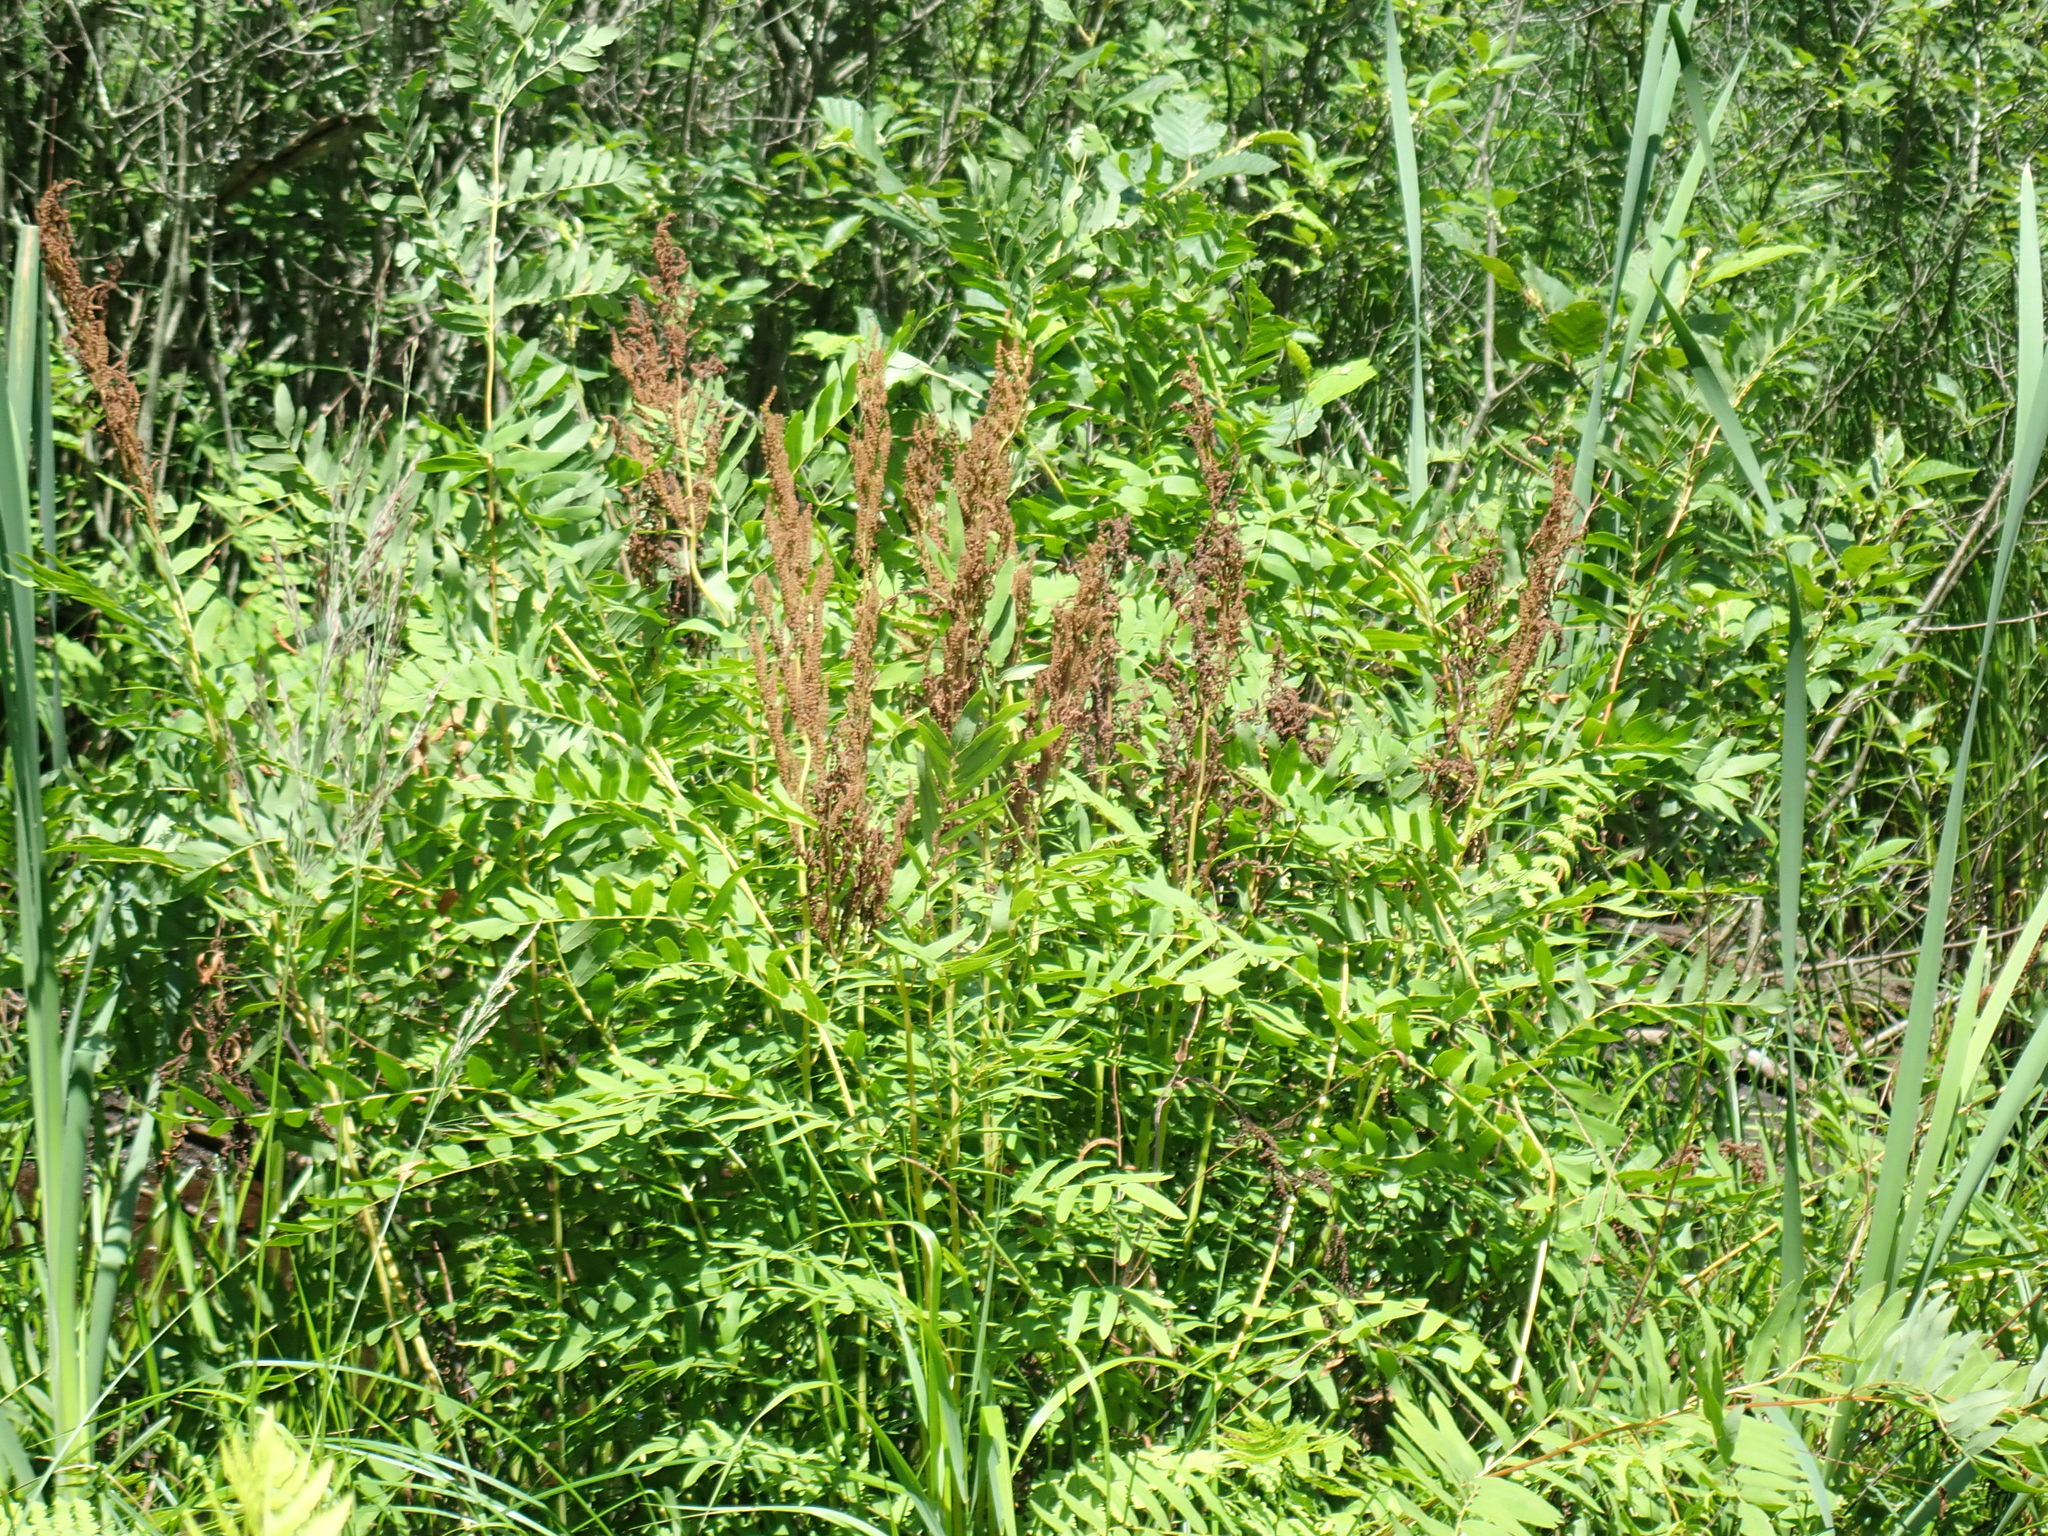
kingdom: Plantae
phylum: Tracheophyta
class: Polypodiopsida
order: Osmundales
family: Osmundaceae
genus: Osmunda
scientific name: Osmunda spectabilis
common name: American royal fern
